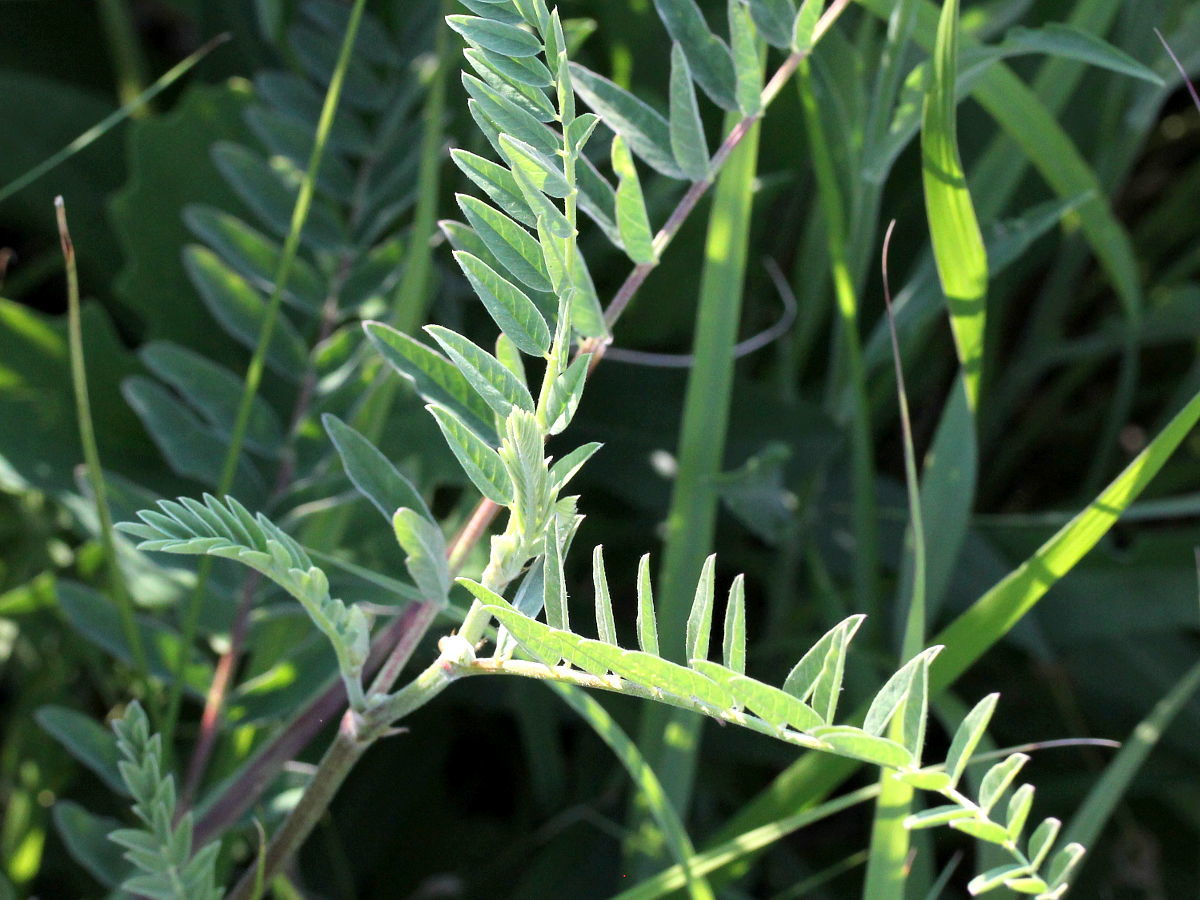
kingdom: Plantae
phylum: Tracheophyta
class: Magnoliopsida
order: Fabales
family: Fabaceae
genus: Astragalus
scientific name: Astragalus canadensis
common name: Canada milk-vetch
